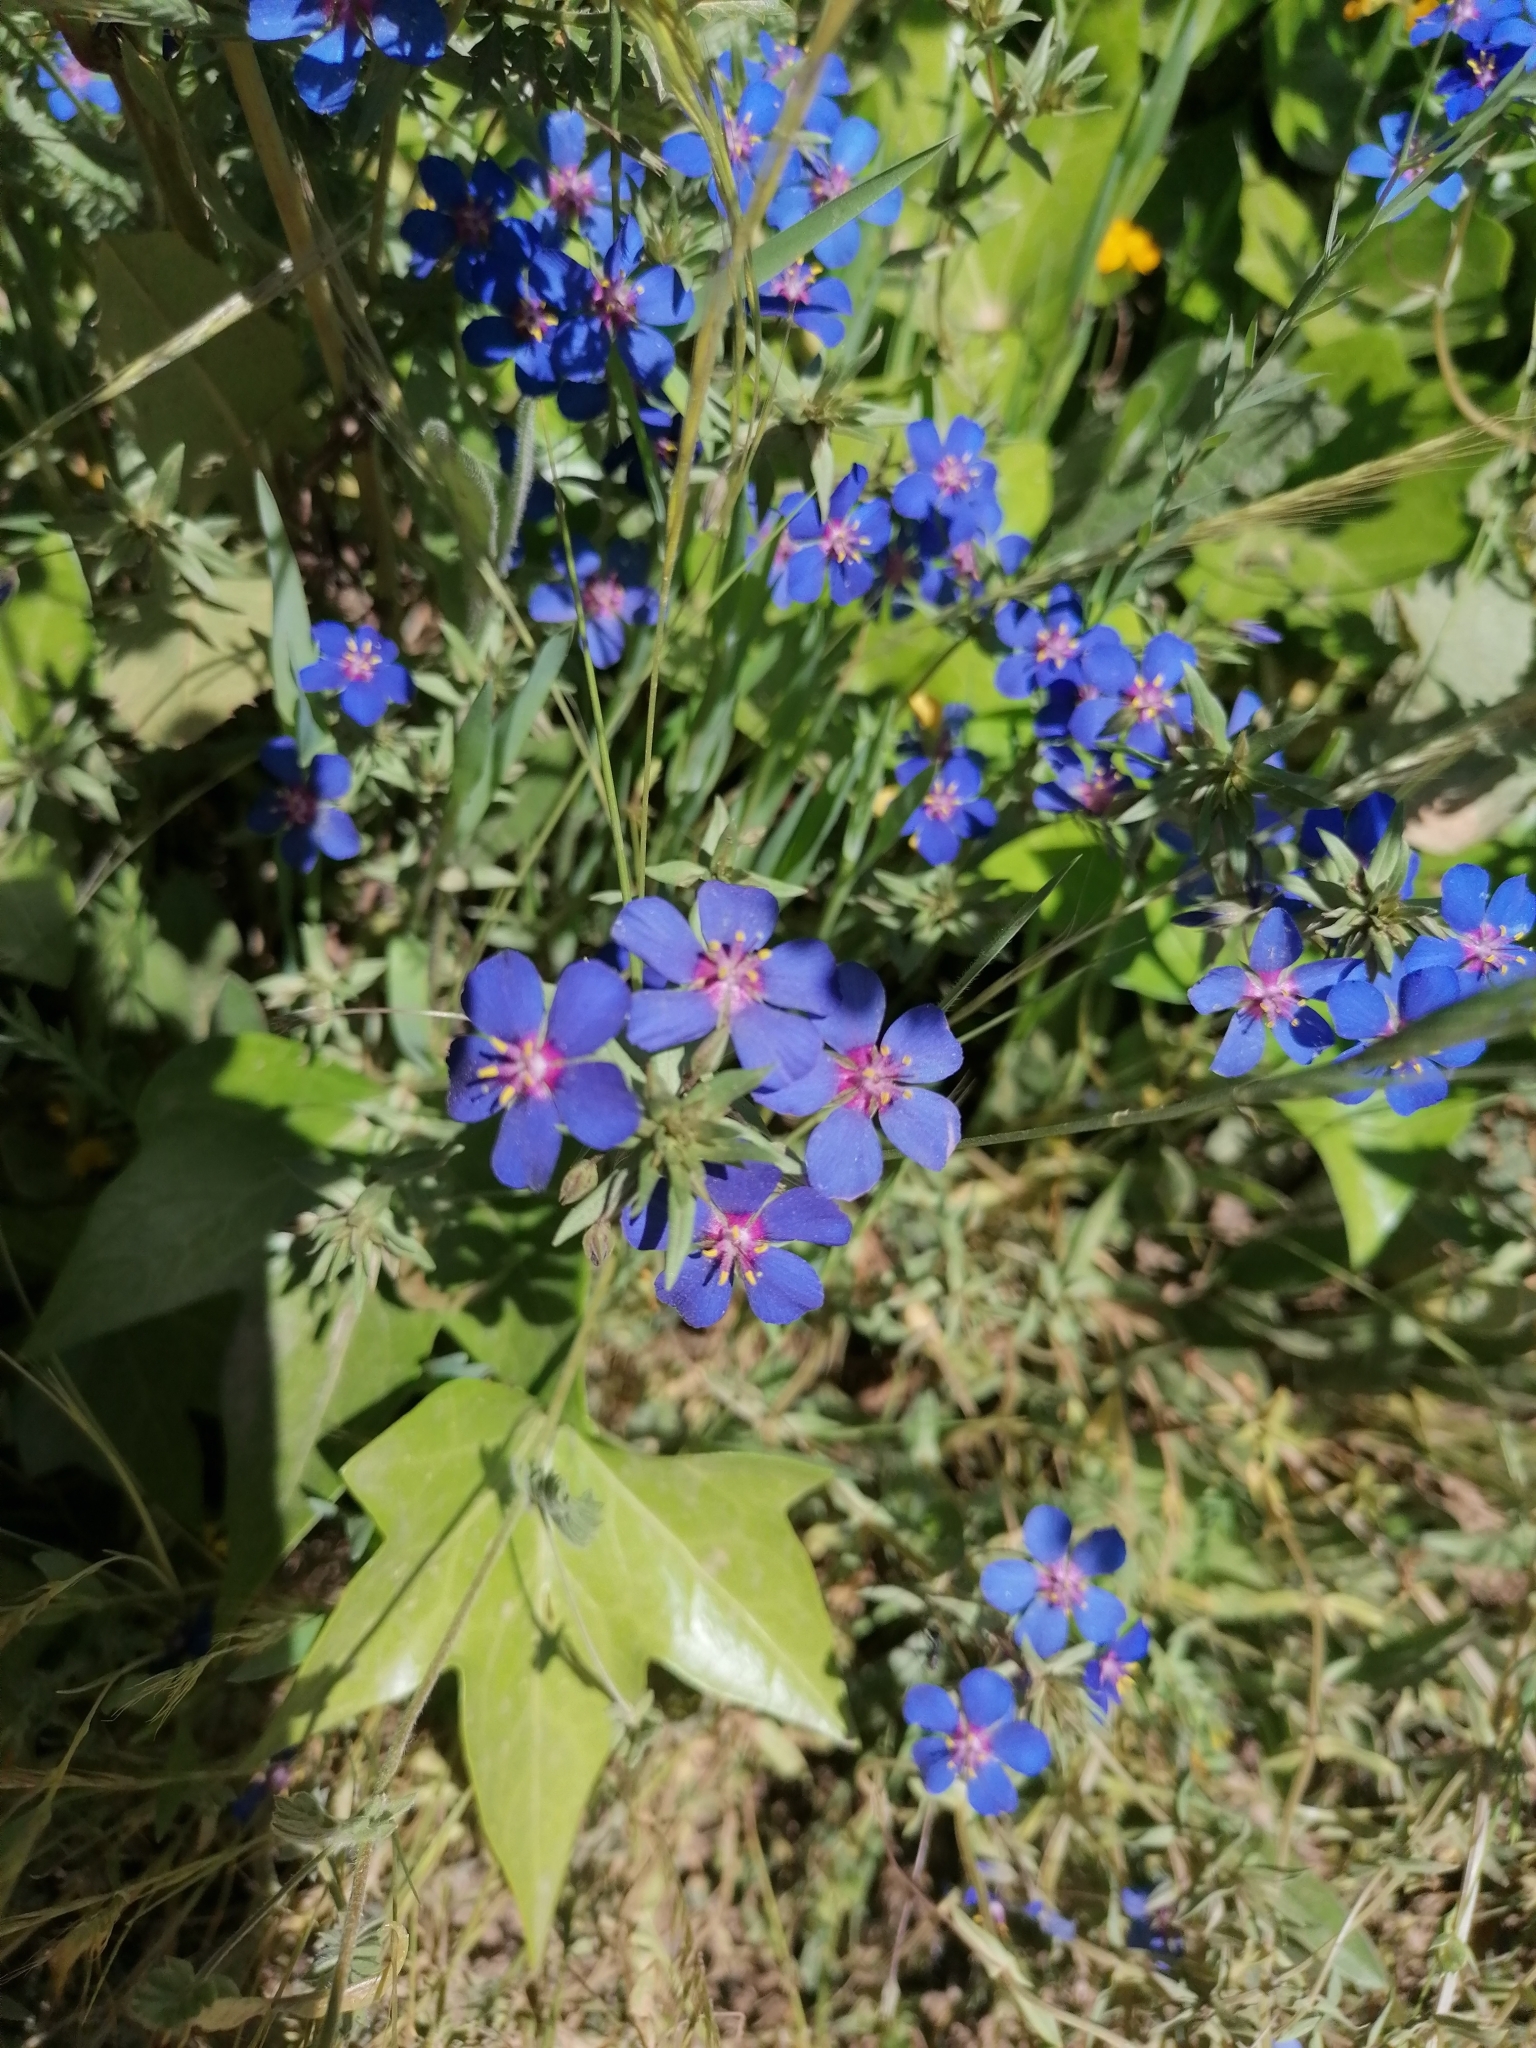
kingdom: Plantae
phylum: Tracheophyta
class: Magnoliopsida
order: Ericales
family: Primulaceae
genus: Lysimachia
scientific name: Lysimachia monelli
